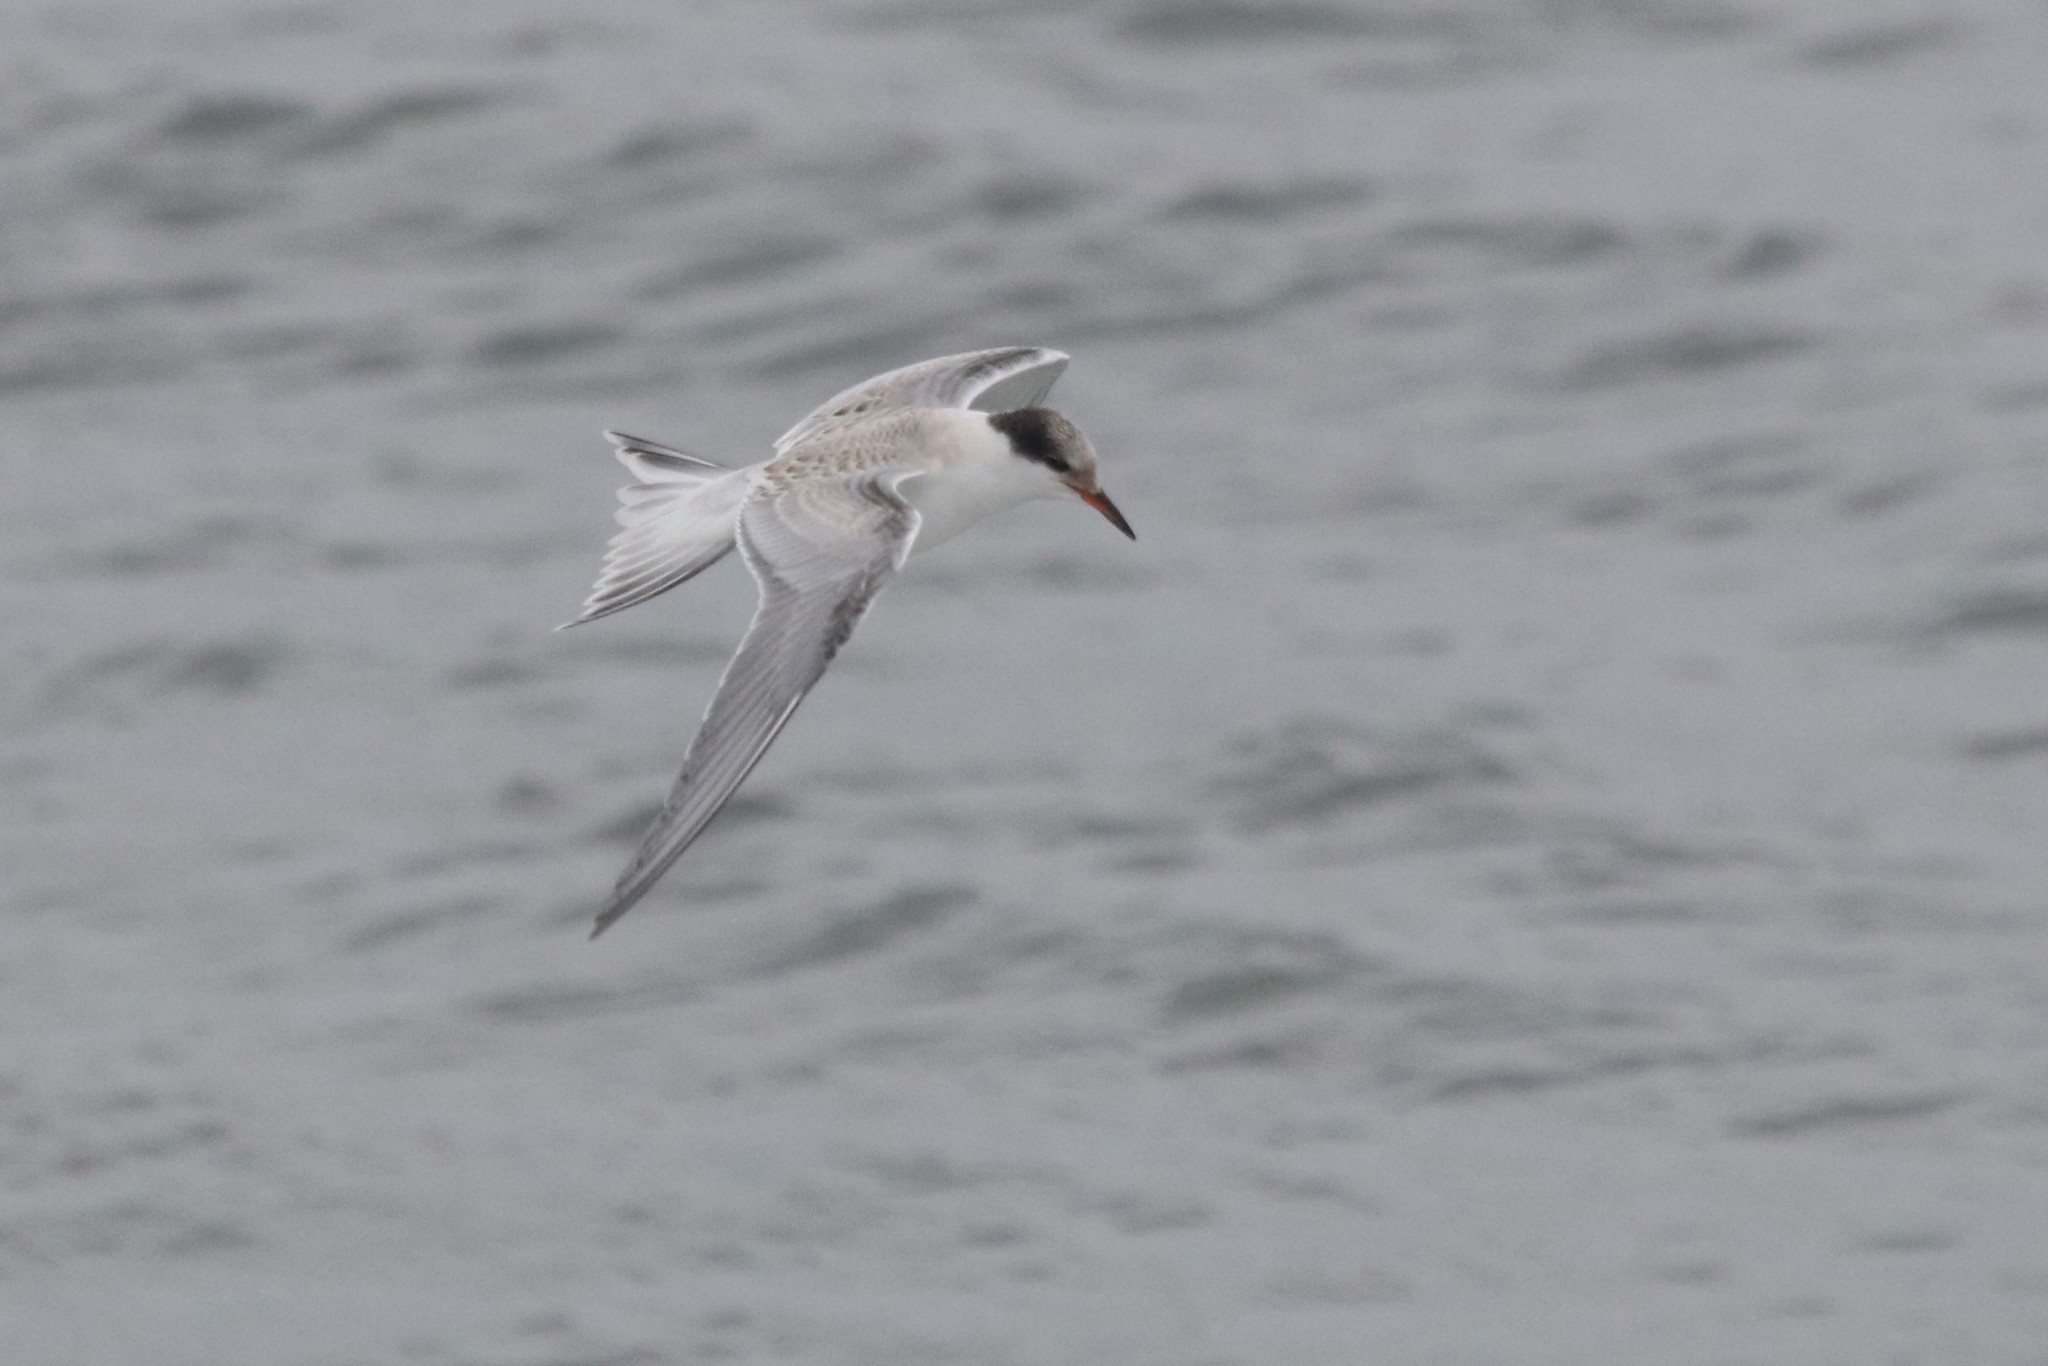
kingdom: Animalia
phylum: Chordata
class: Aves
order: Charadriiformes
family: Laridae
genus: Sterna
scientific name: Sterna hirundo
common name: Common tern
